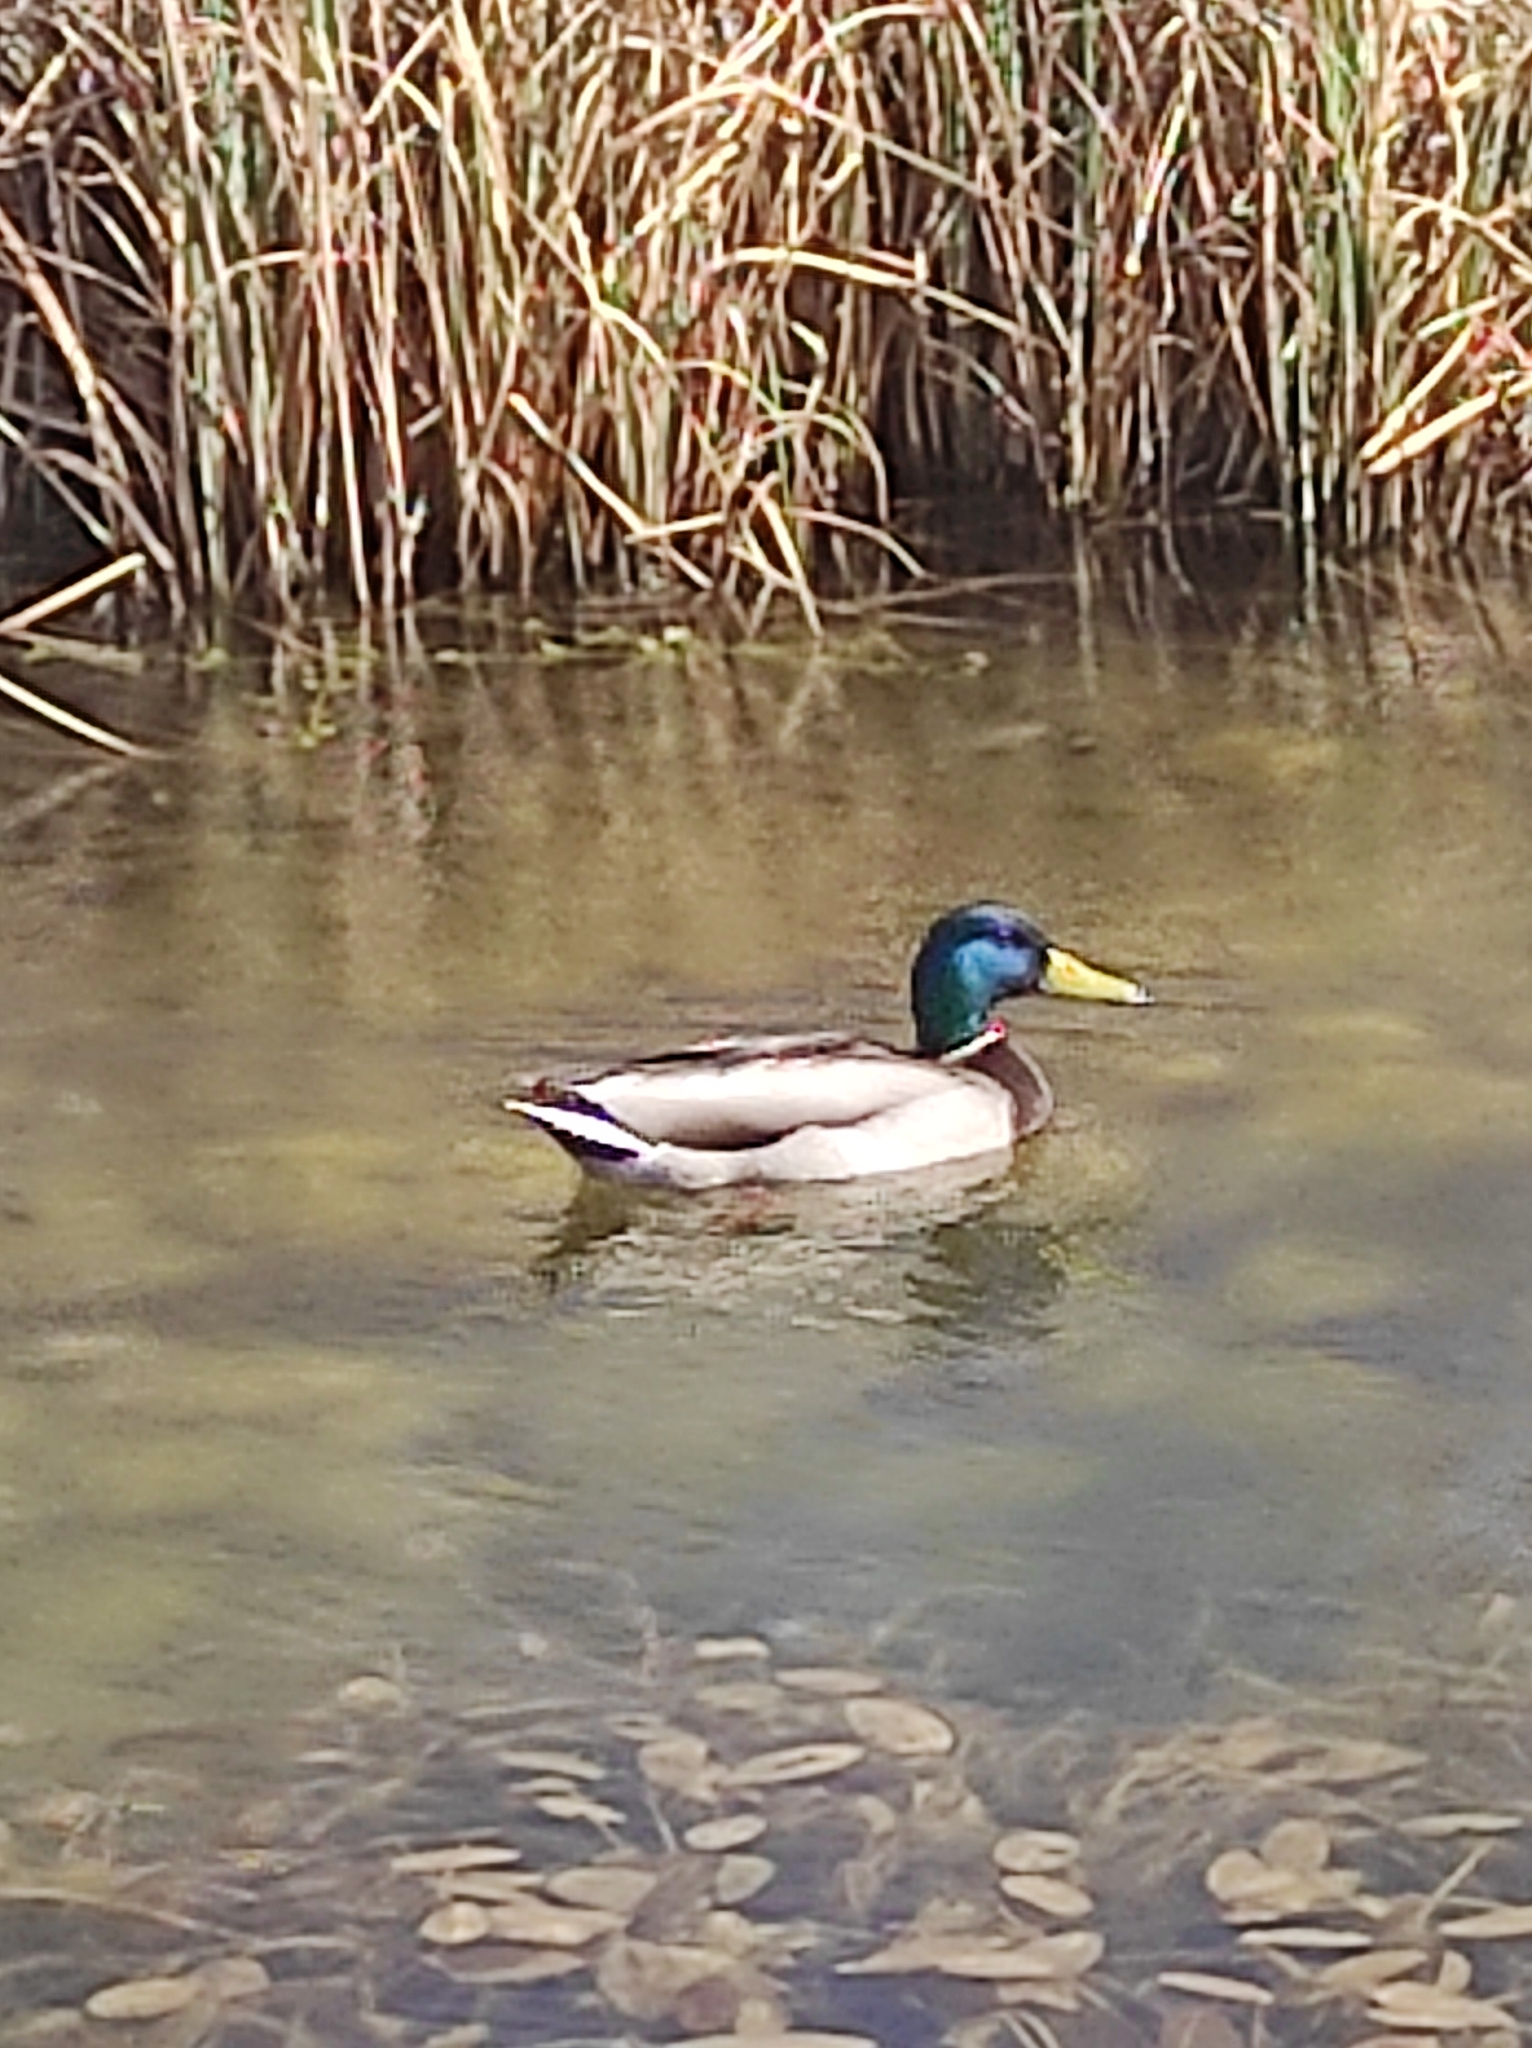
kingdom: Animalia
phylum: Chordata
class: Aves
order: Anseriformes
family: Anatidae
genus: Anas
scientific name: Anas platyrhynchos
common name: Mallard
